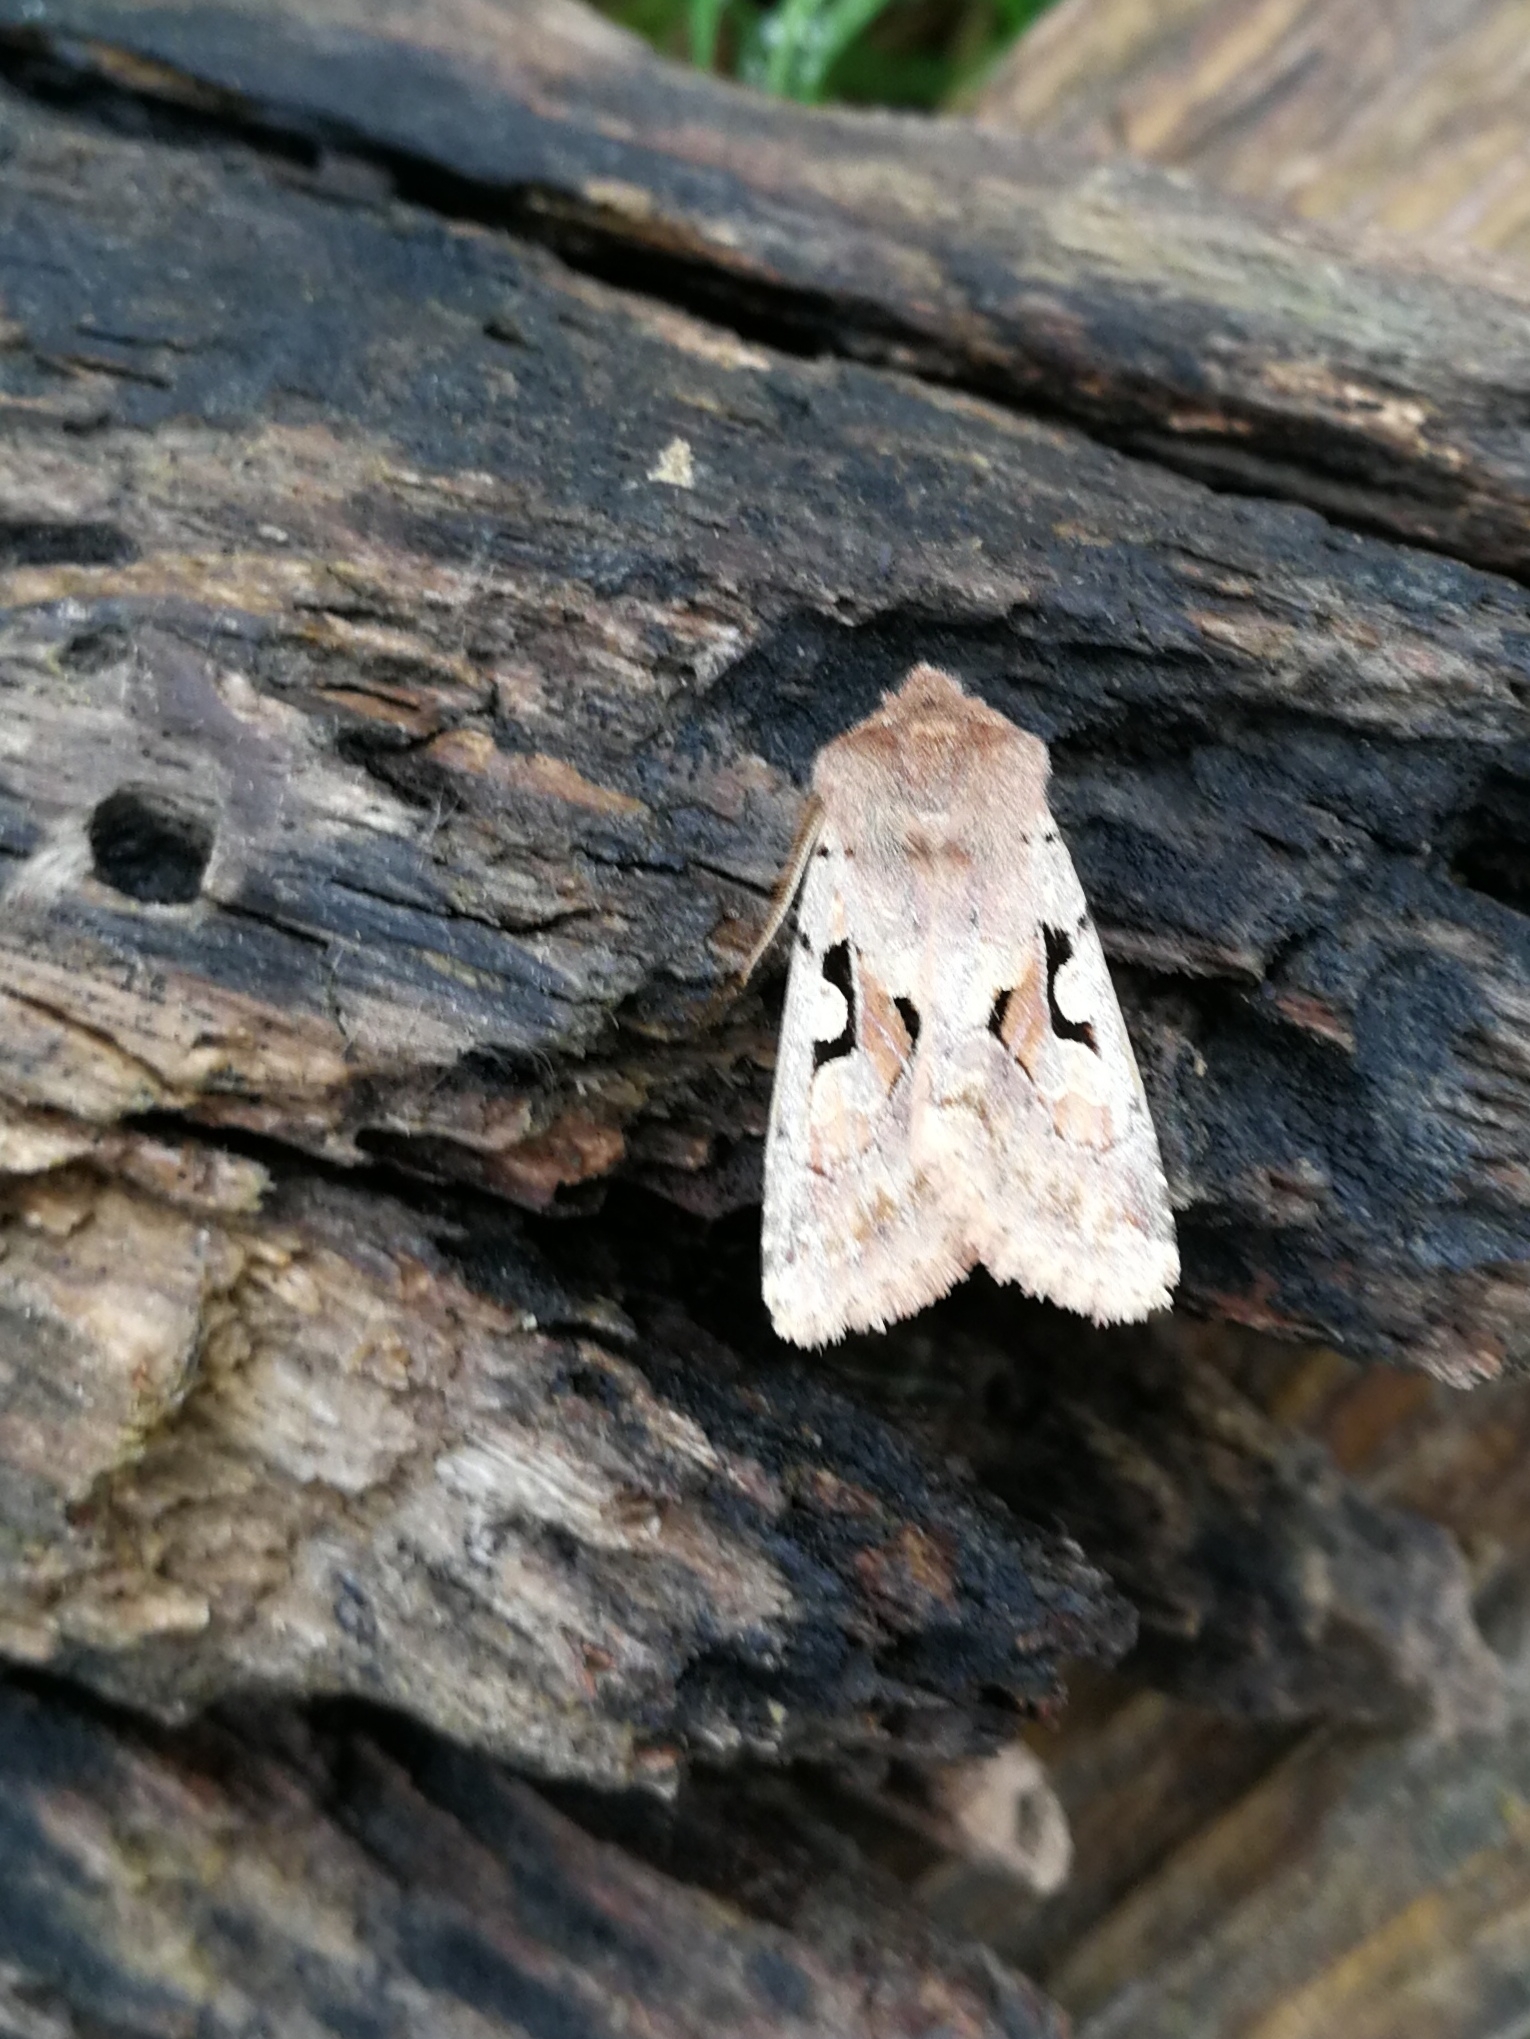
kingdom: Animalia
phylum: Arthropoda
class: Insecta
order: Lepidoptera
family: Noctuidae
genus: Orthosia
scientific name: Orthosia gothica
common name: Hebrew character
